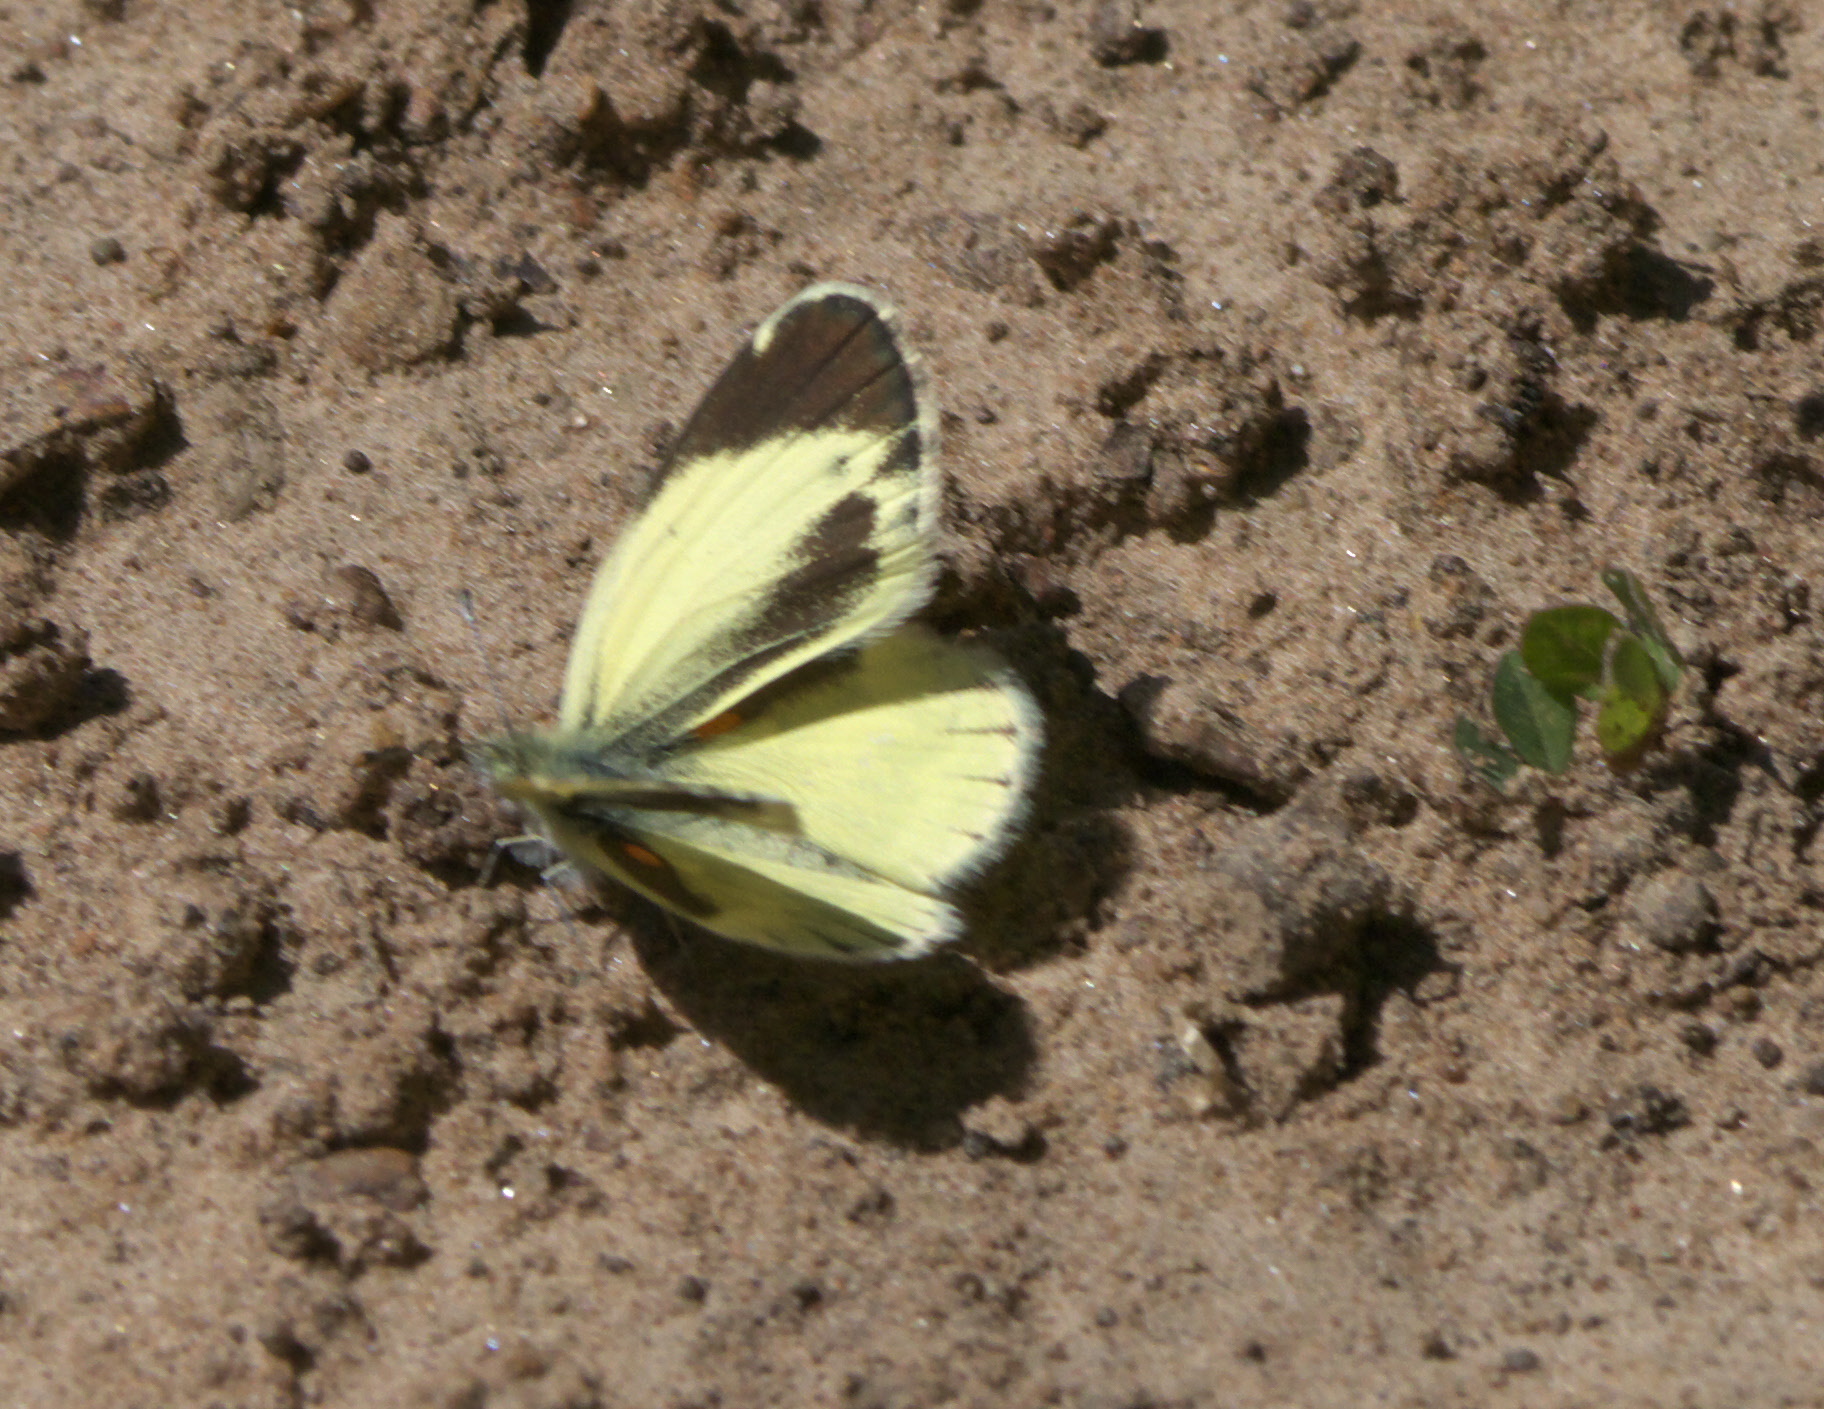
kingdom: Animalia
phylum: Arthropoda
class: Insecta
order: Lepidoptera
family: Pieridae
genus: Nathalis
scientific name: Nathalis iole
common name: Dainty sulphur
